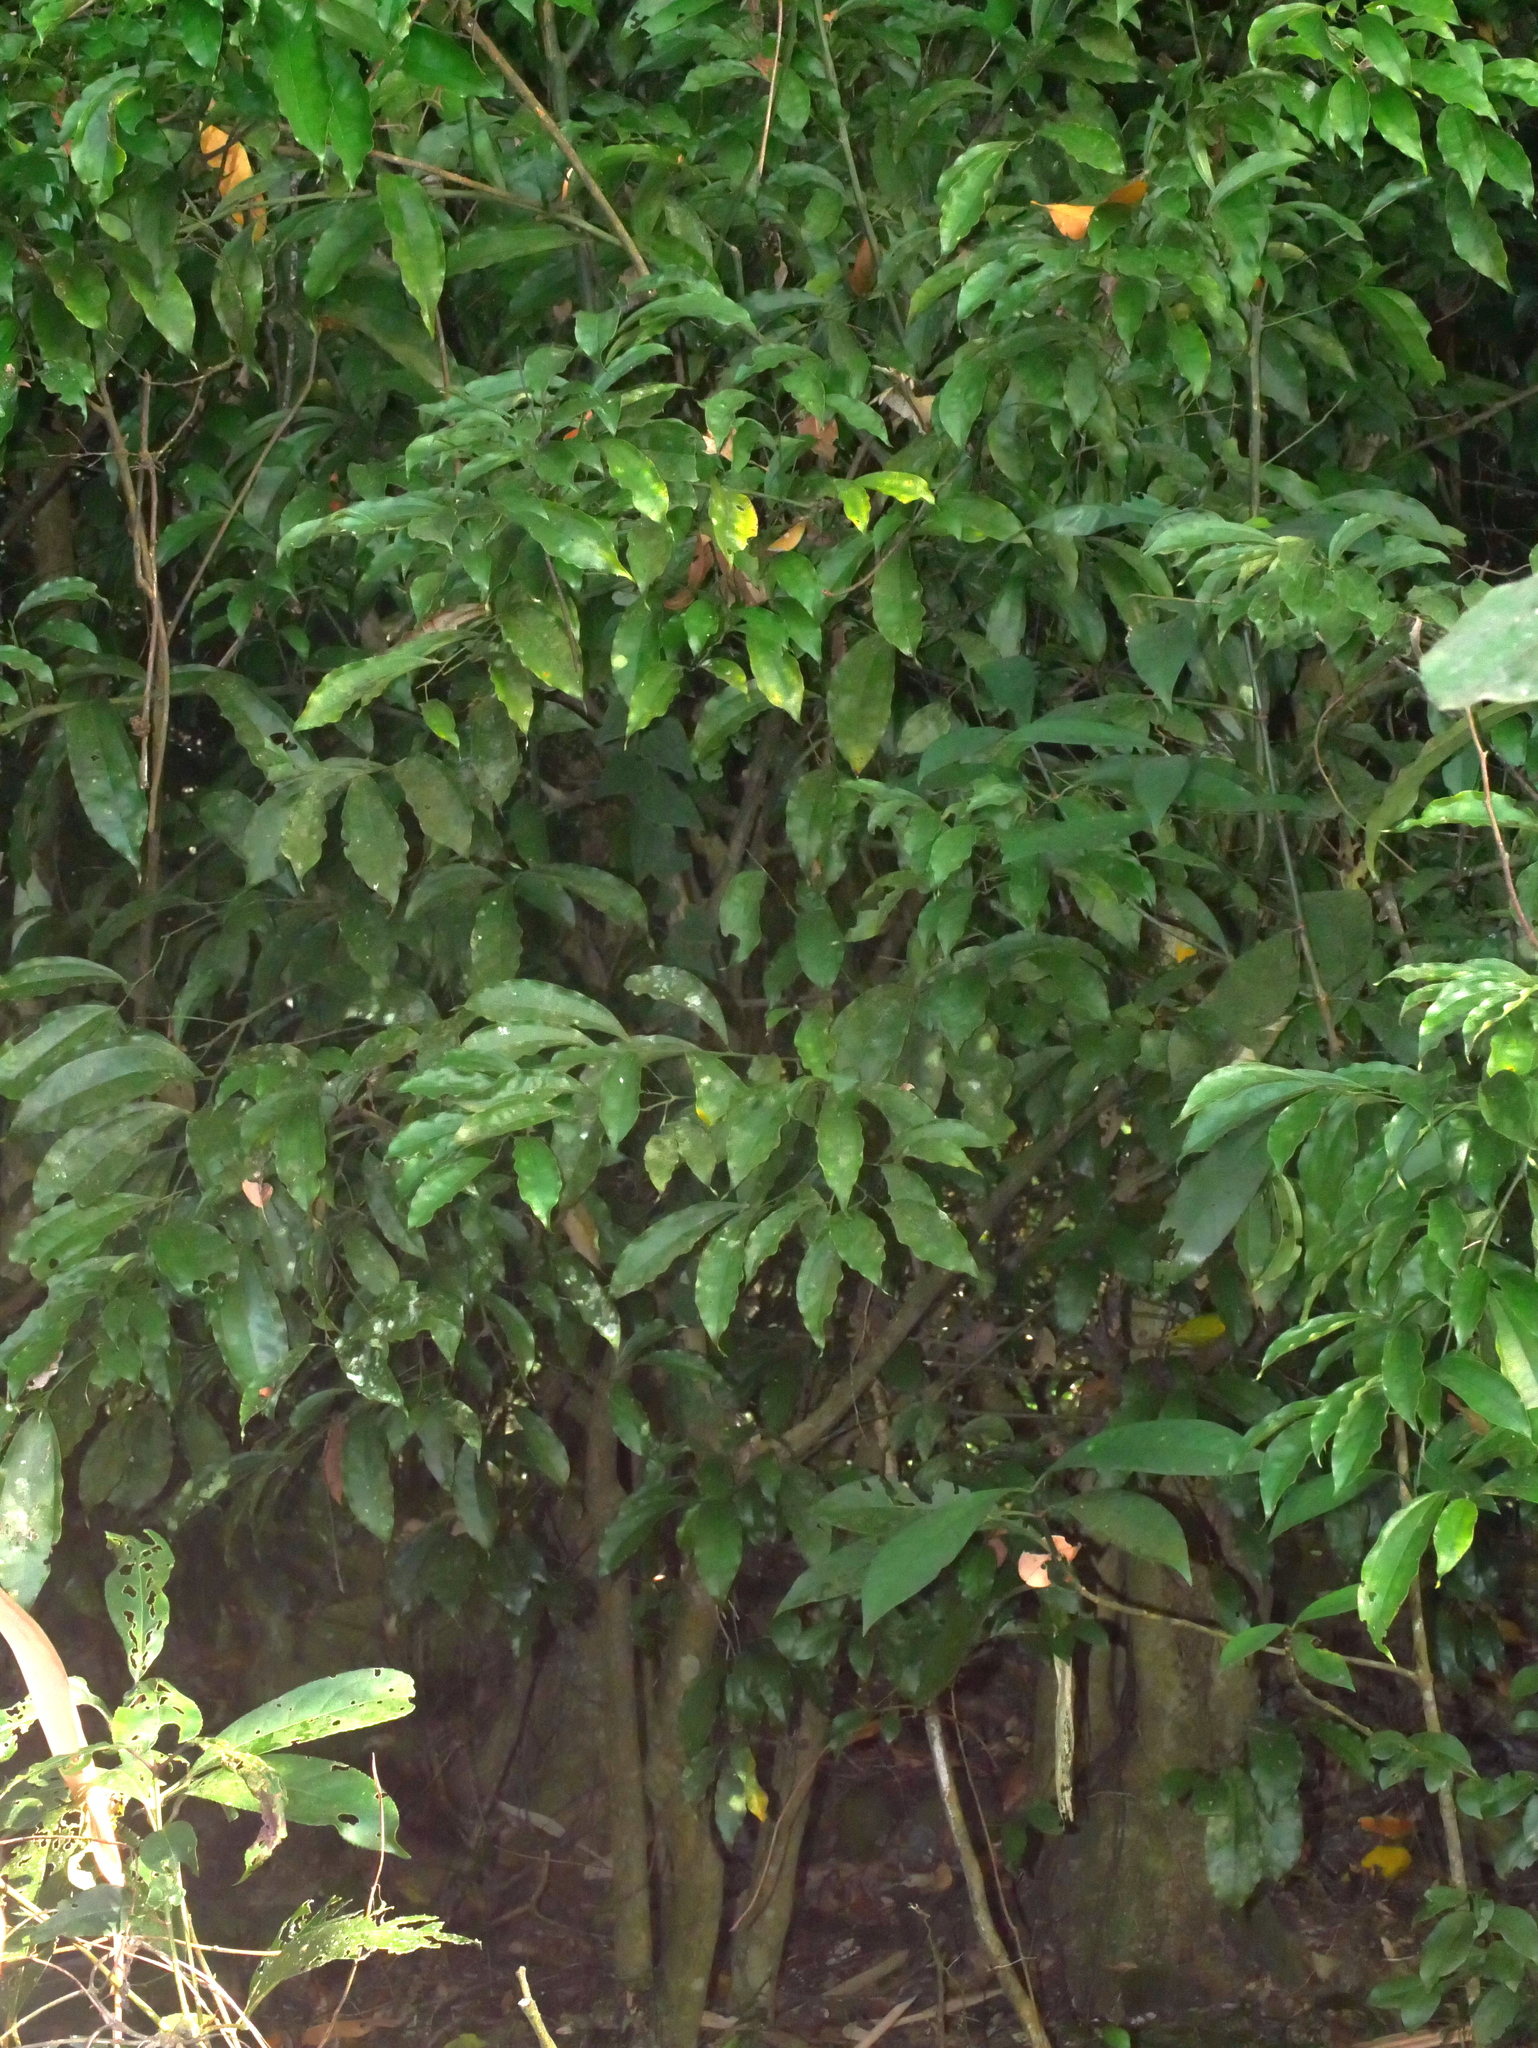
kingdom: Plantae
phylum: Tracheophyta
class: Magnoliopsida
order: Ranunculales
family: Menispermaceae
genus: Cocculus
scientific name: Cocculus laurifolius
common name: Laurel-leaf snailseed
